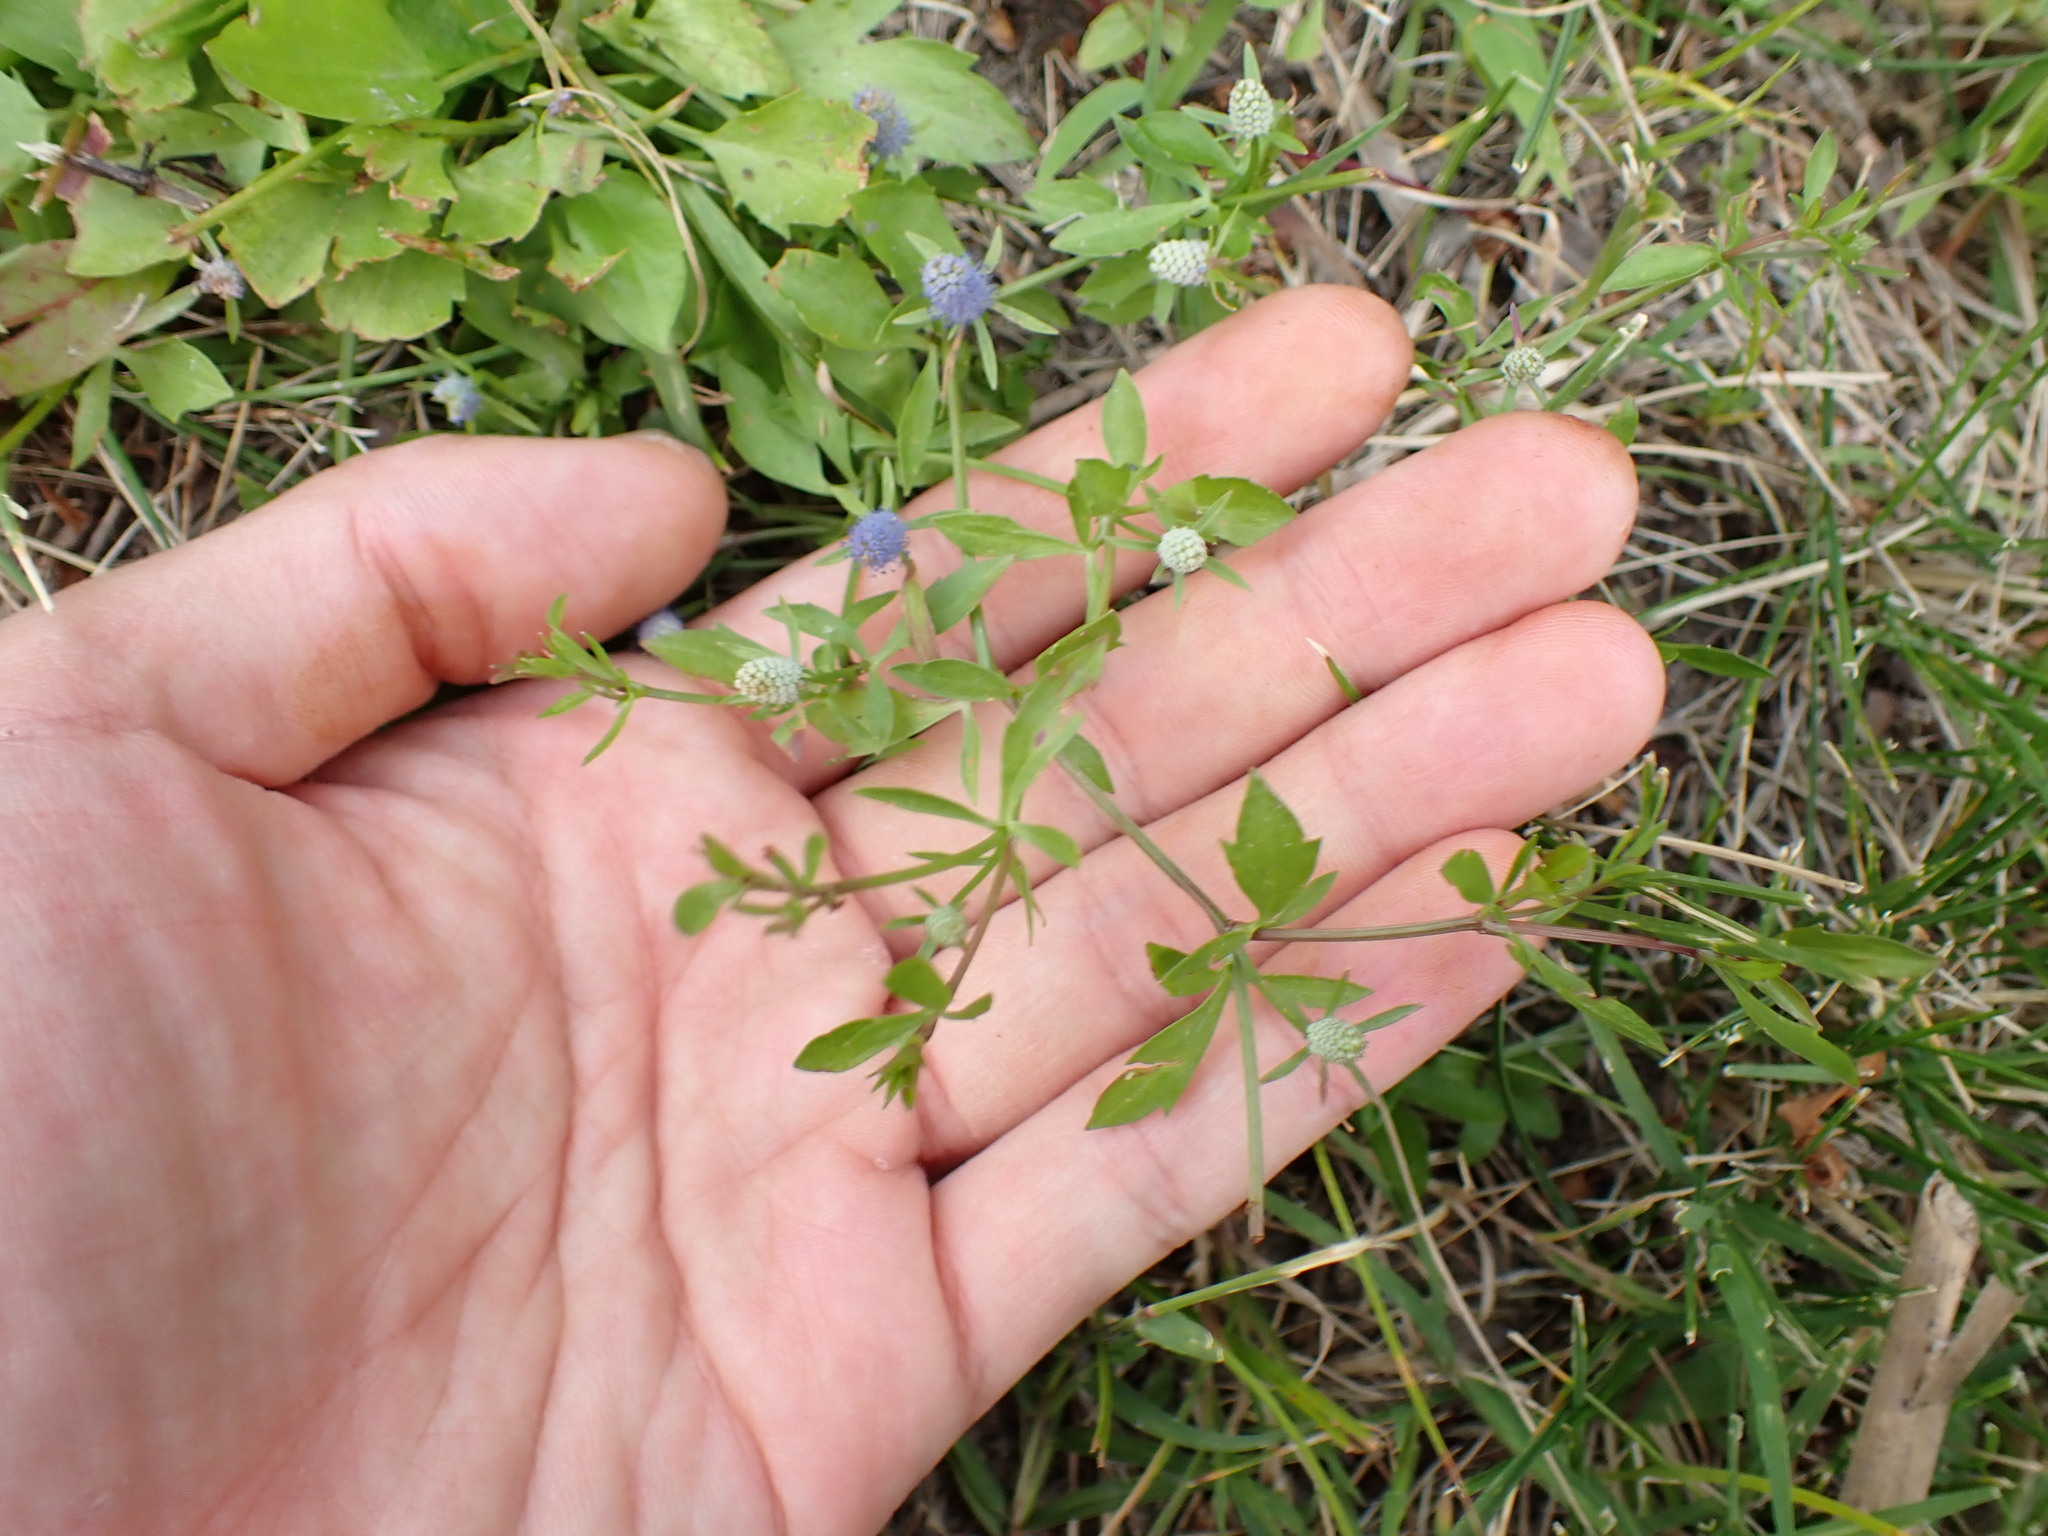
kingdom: Plantae
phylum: Tracheophyta
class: Magnoliopsida
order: Apiales
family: Apiaceae
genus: Eryngium
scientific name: Eryngium prostratum
